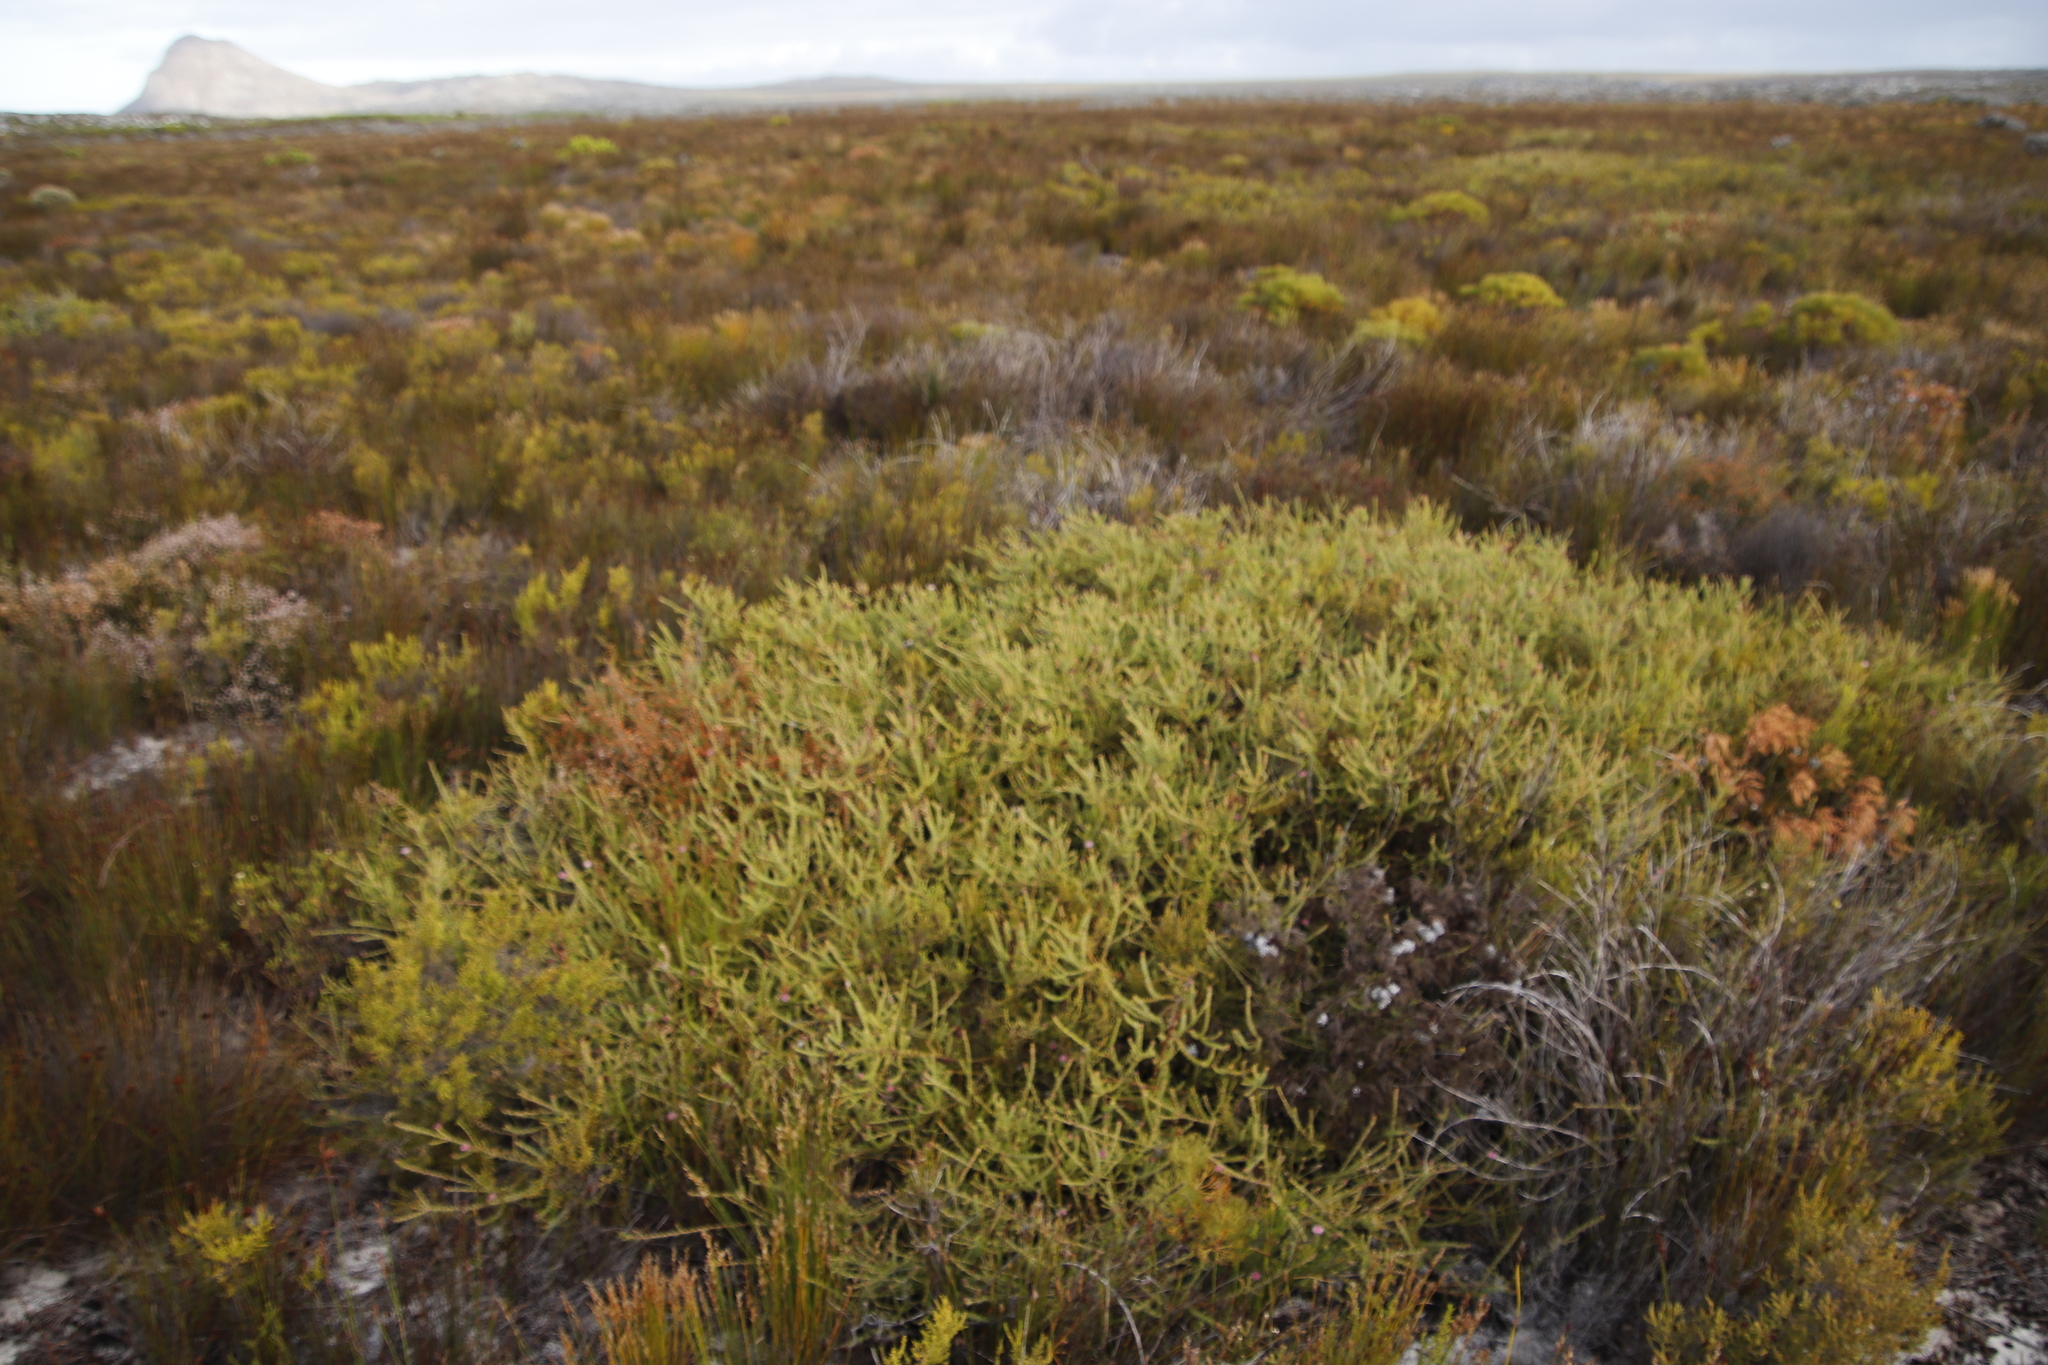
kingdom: Plantae
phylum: Tracheophyta
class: Magnoliopsida
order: Proteales
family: Proteaceae
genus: Diastella
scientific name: Diastella divaricata
